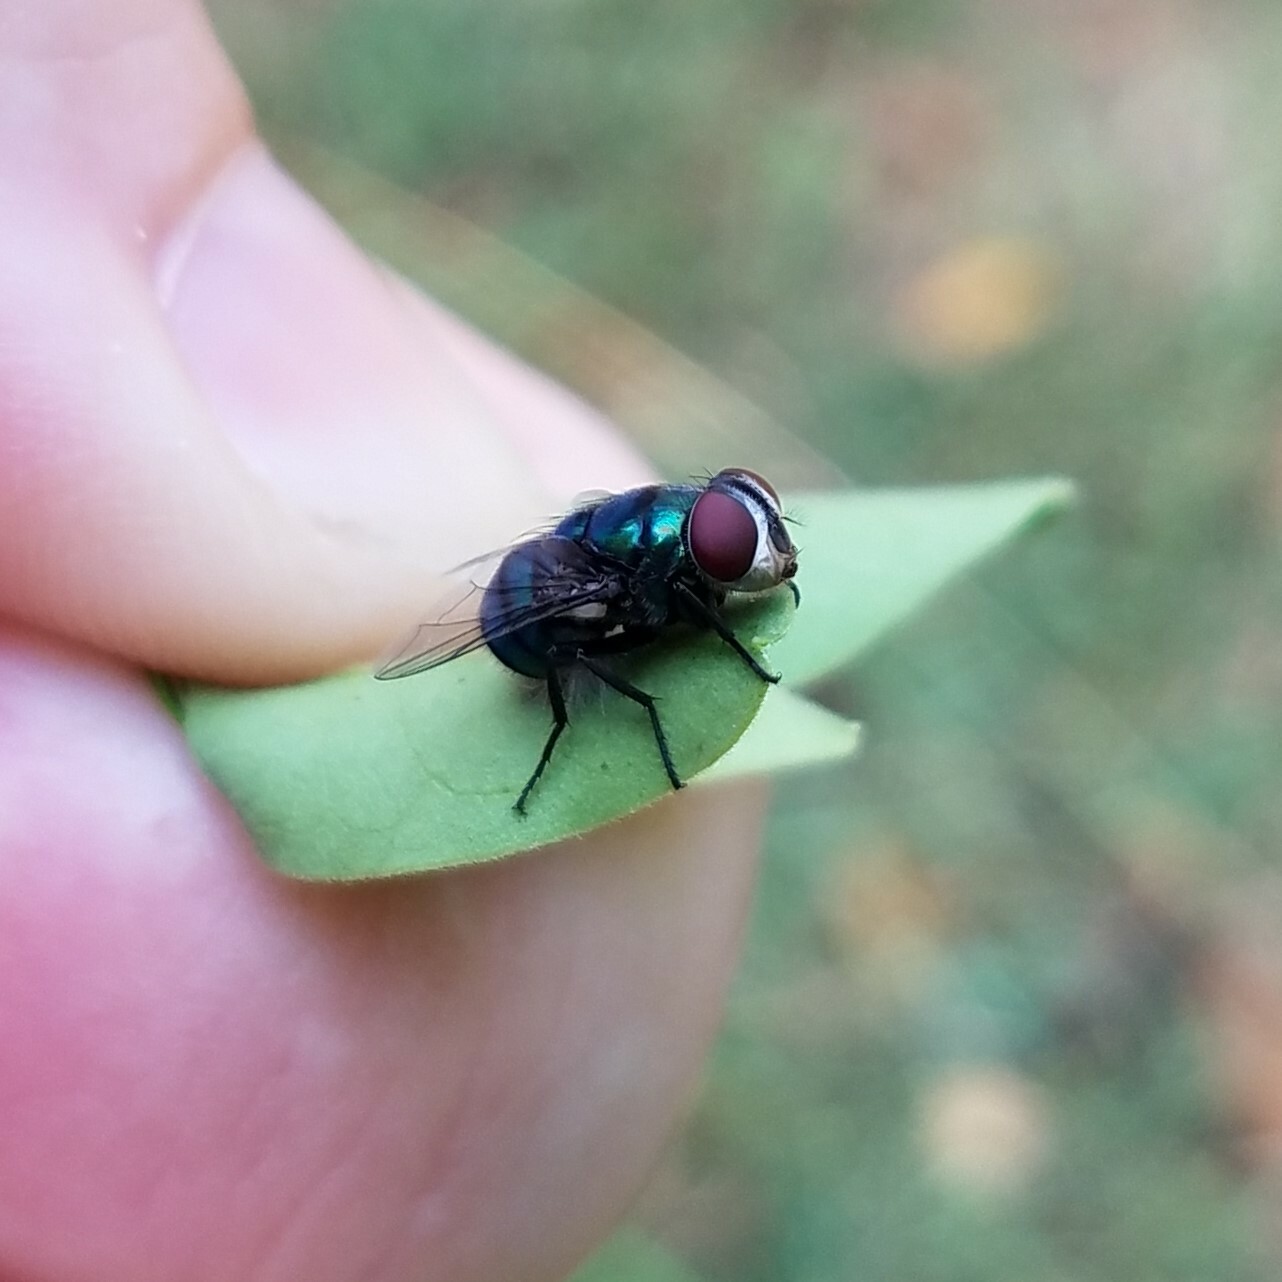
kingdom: Animalia
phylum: Arthropoda
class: Insecta
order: Diptera
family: Calliphoridae
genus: Chrysomya
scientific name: Chrysomya rufifacies
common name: Blow fly
